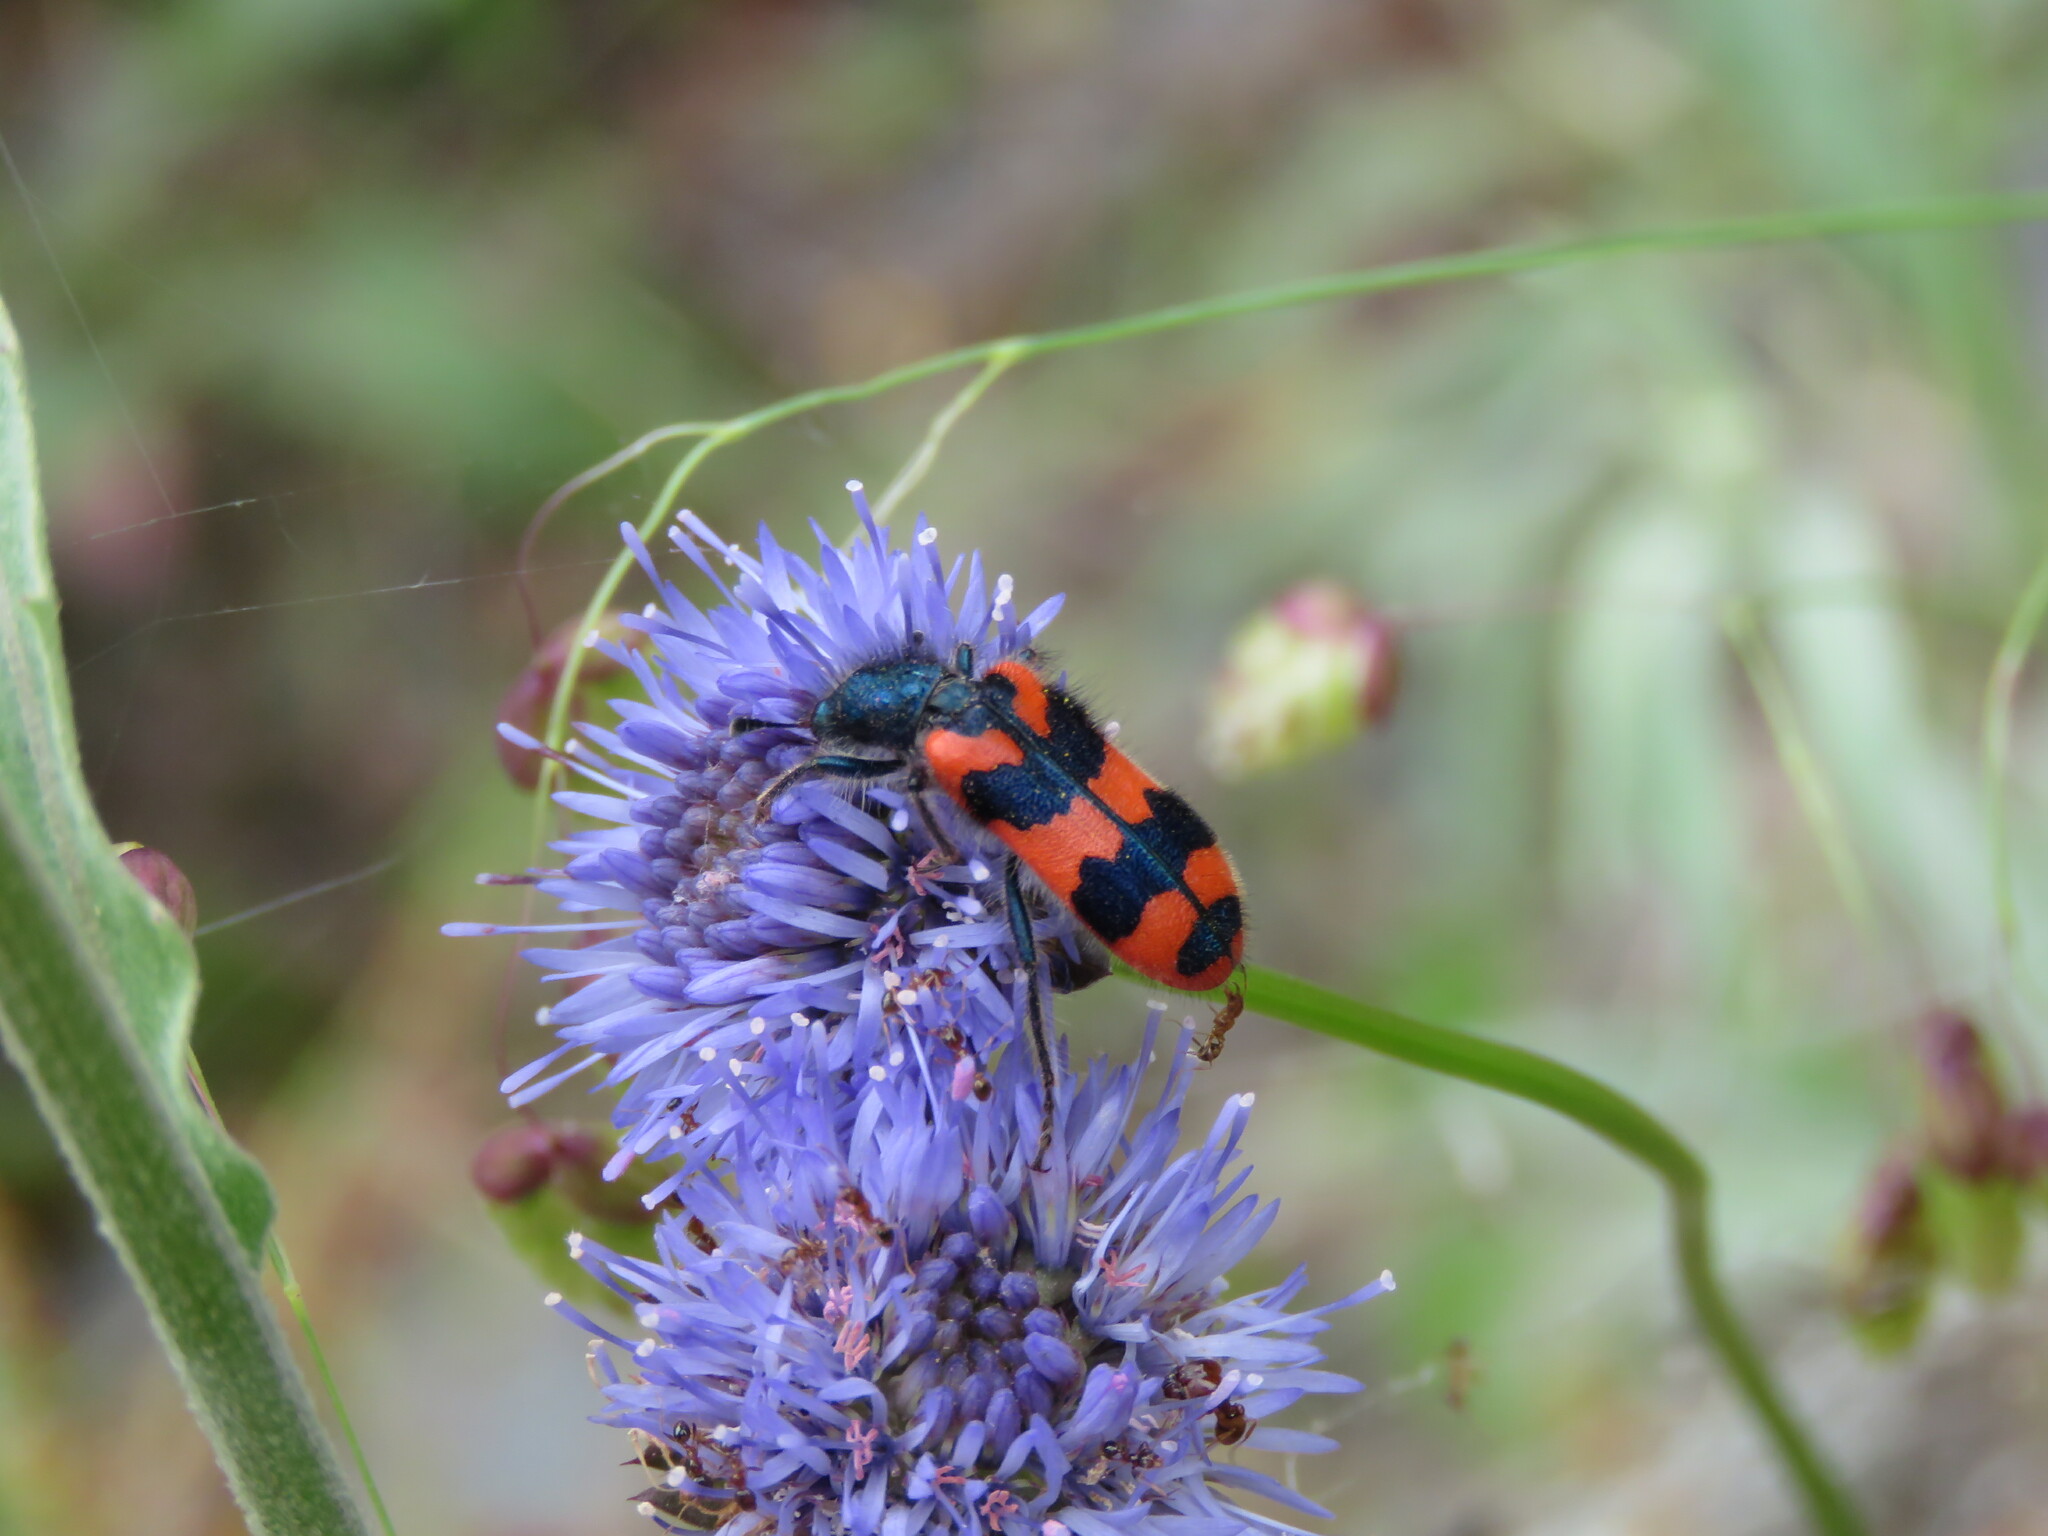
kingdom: Animalia
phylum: Arthropoda
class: Insecta
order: Coleoptera
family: Cleridae
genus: Trichodes
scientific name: Trichodes alvearius
